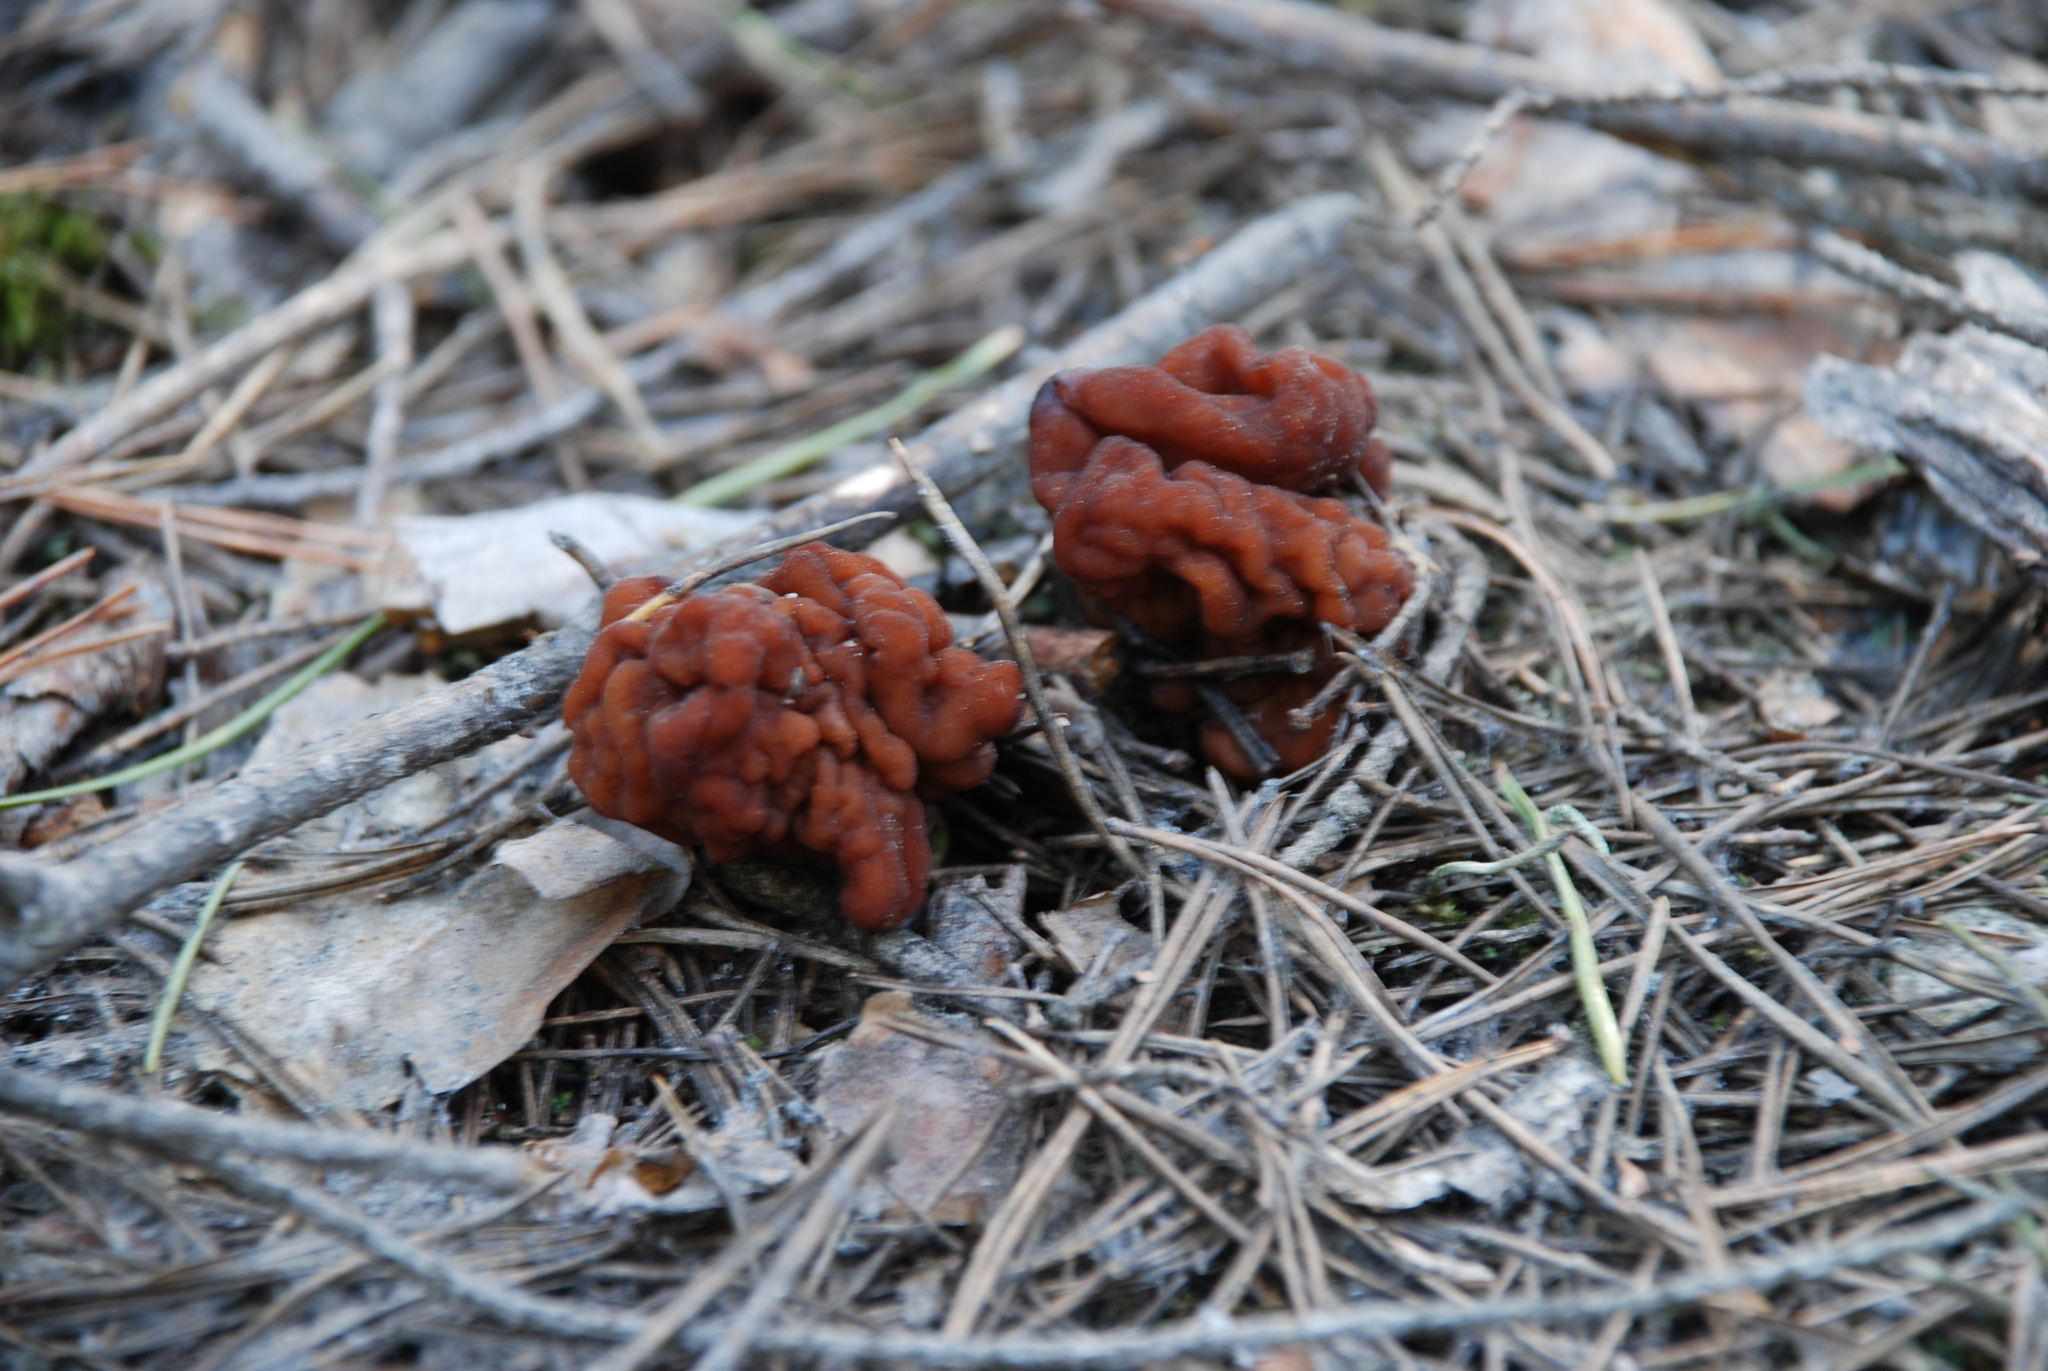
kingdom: Fungi
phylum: Ascomycota
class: Pezizomycetes
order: Pezizales
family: Discinaceae
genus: Gyromitra
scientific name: Gyromitra esculenta
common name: False morel
